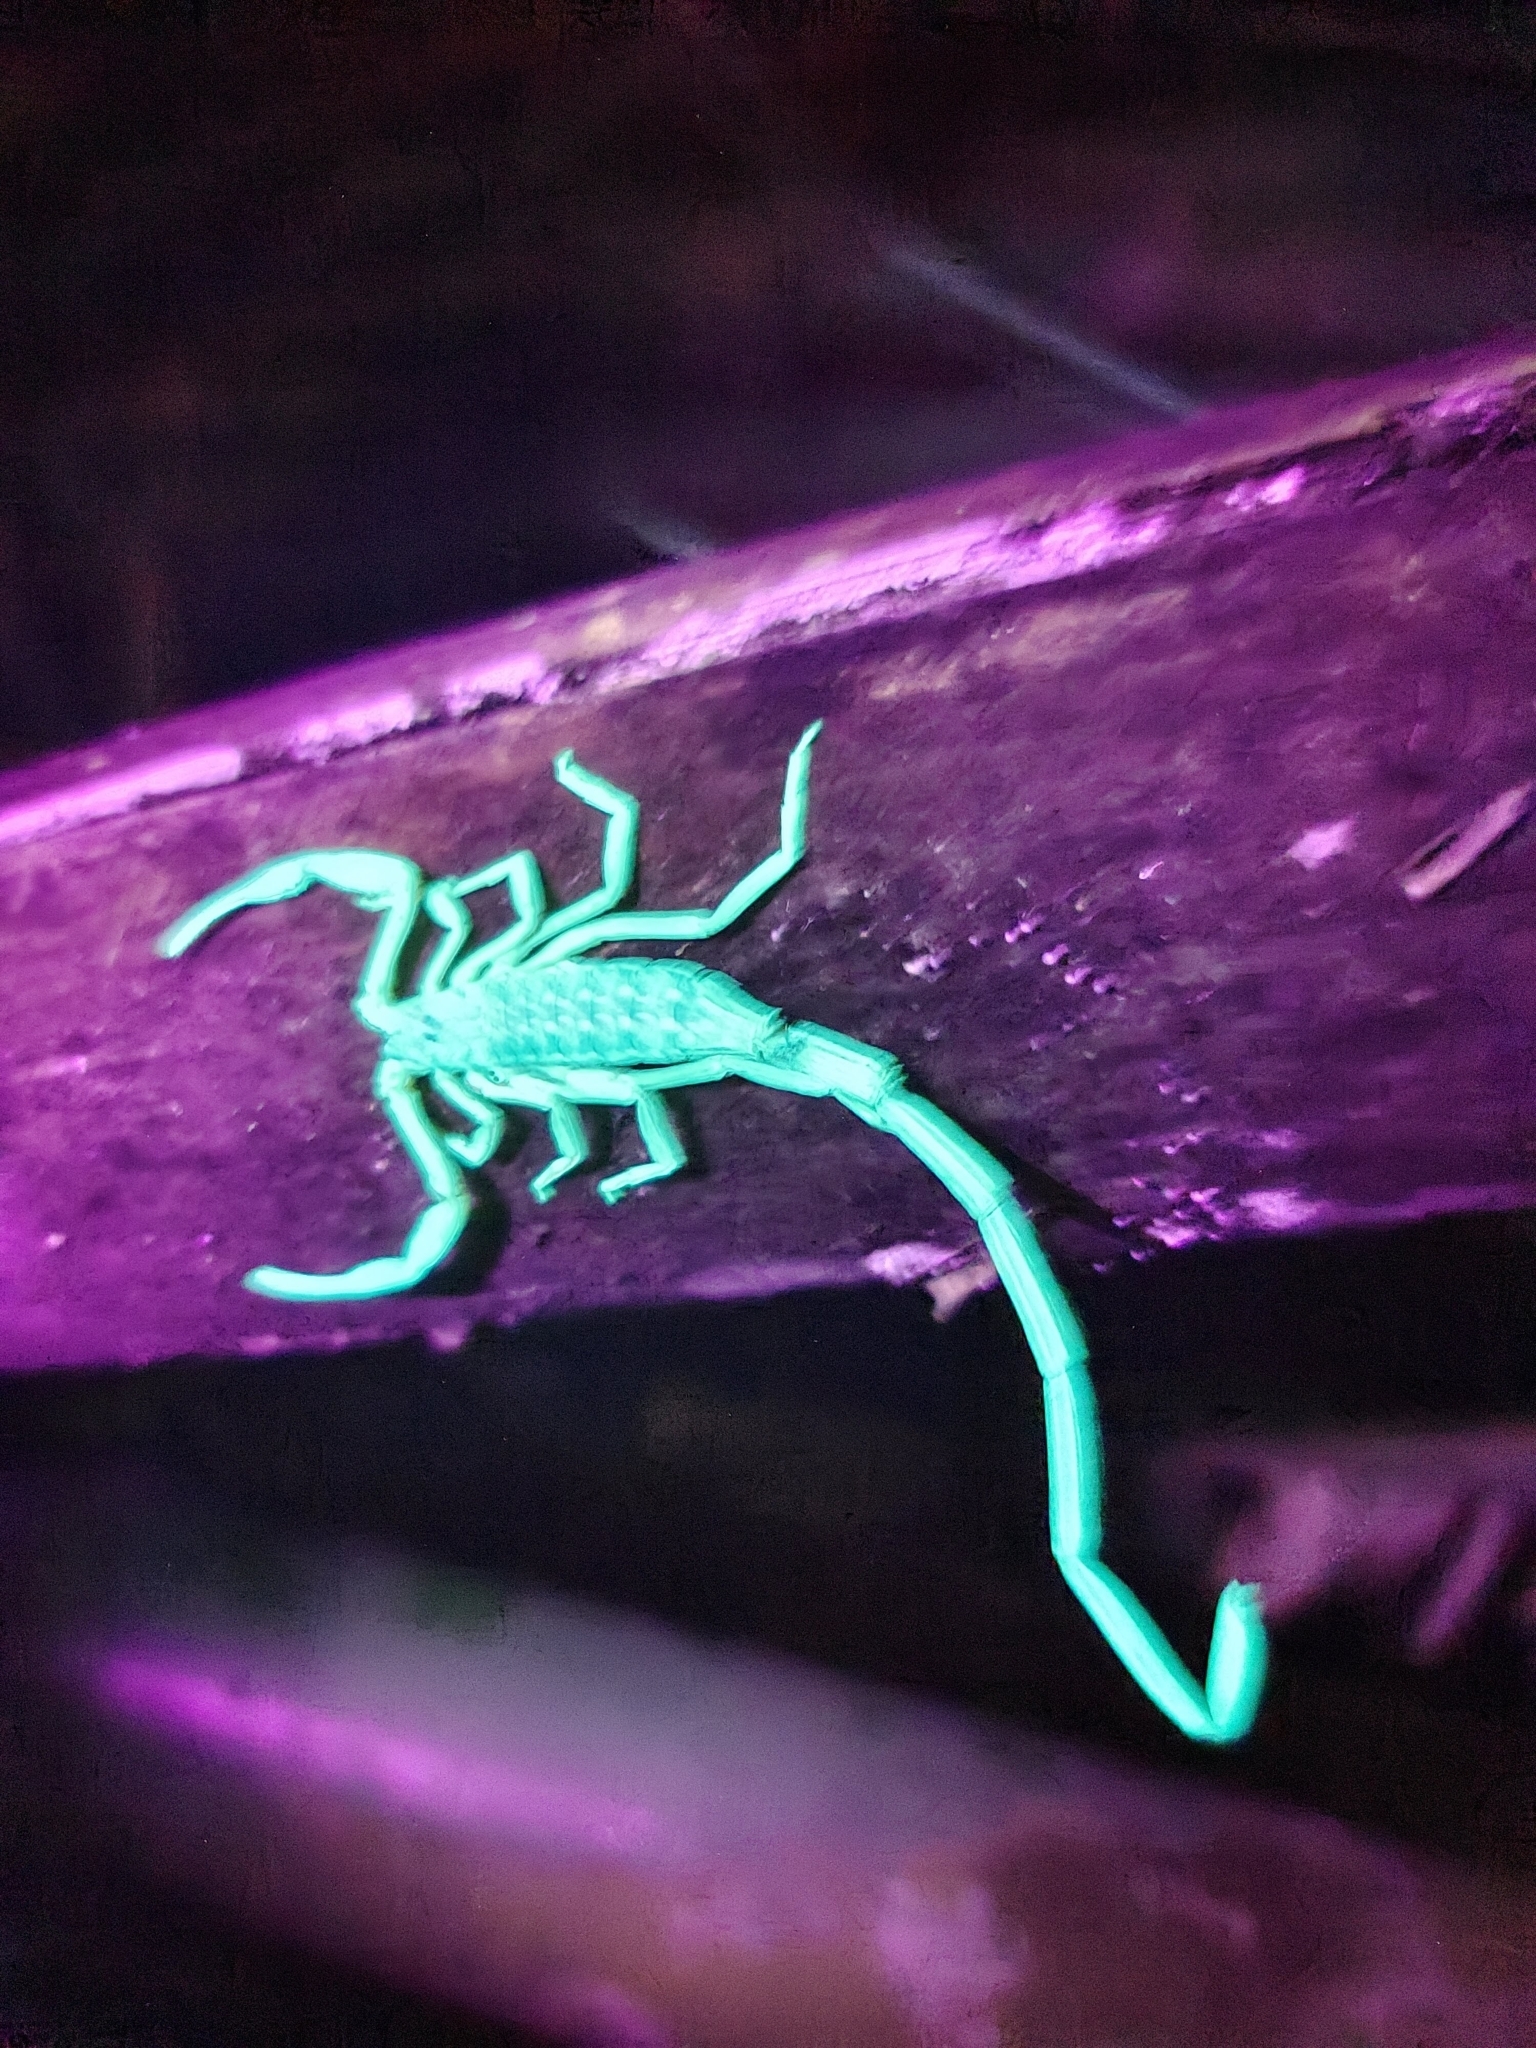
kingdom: Animalia
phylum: Arthropoda
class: Arachnida
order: Scorpiones
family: Buthidae
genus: Lychas
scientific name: Lychas scutilus
